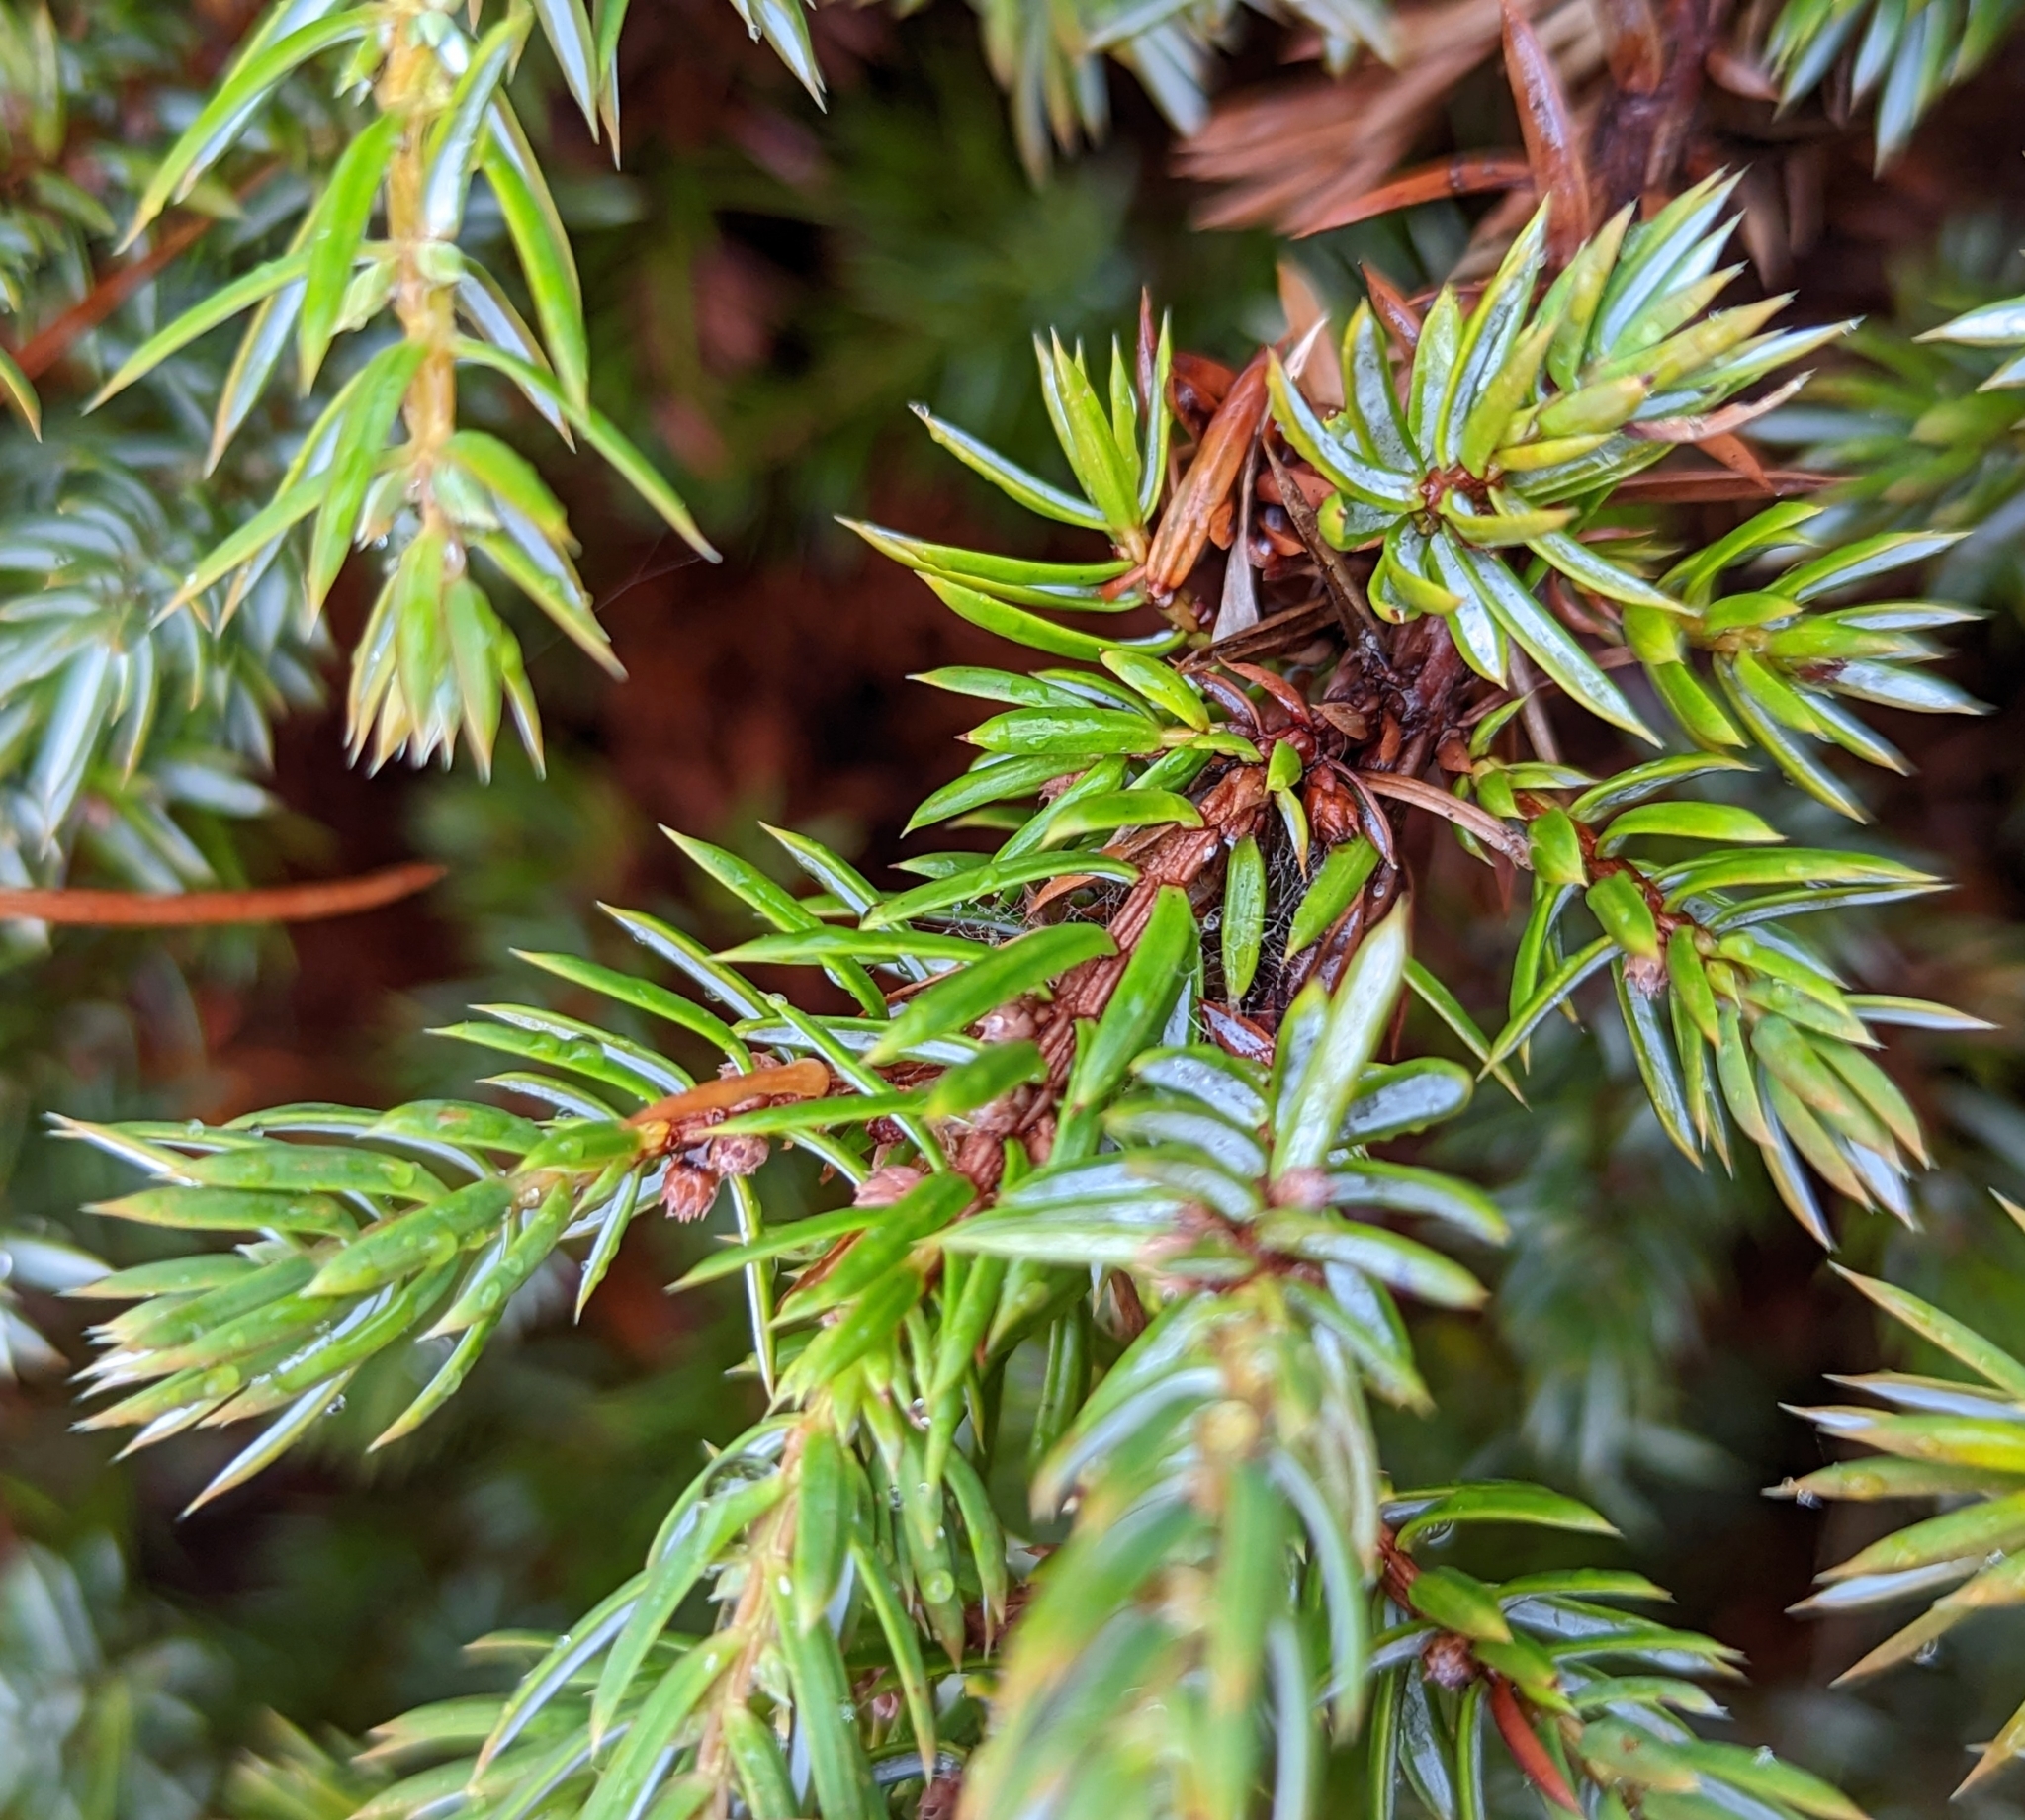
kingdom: Plantae
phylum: Tracheophyta
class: Pinopsida
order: Pinales
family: Cupressaceae
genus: Juniperus
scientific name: Juniperus communis
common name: Common juniper
